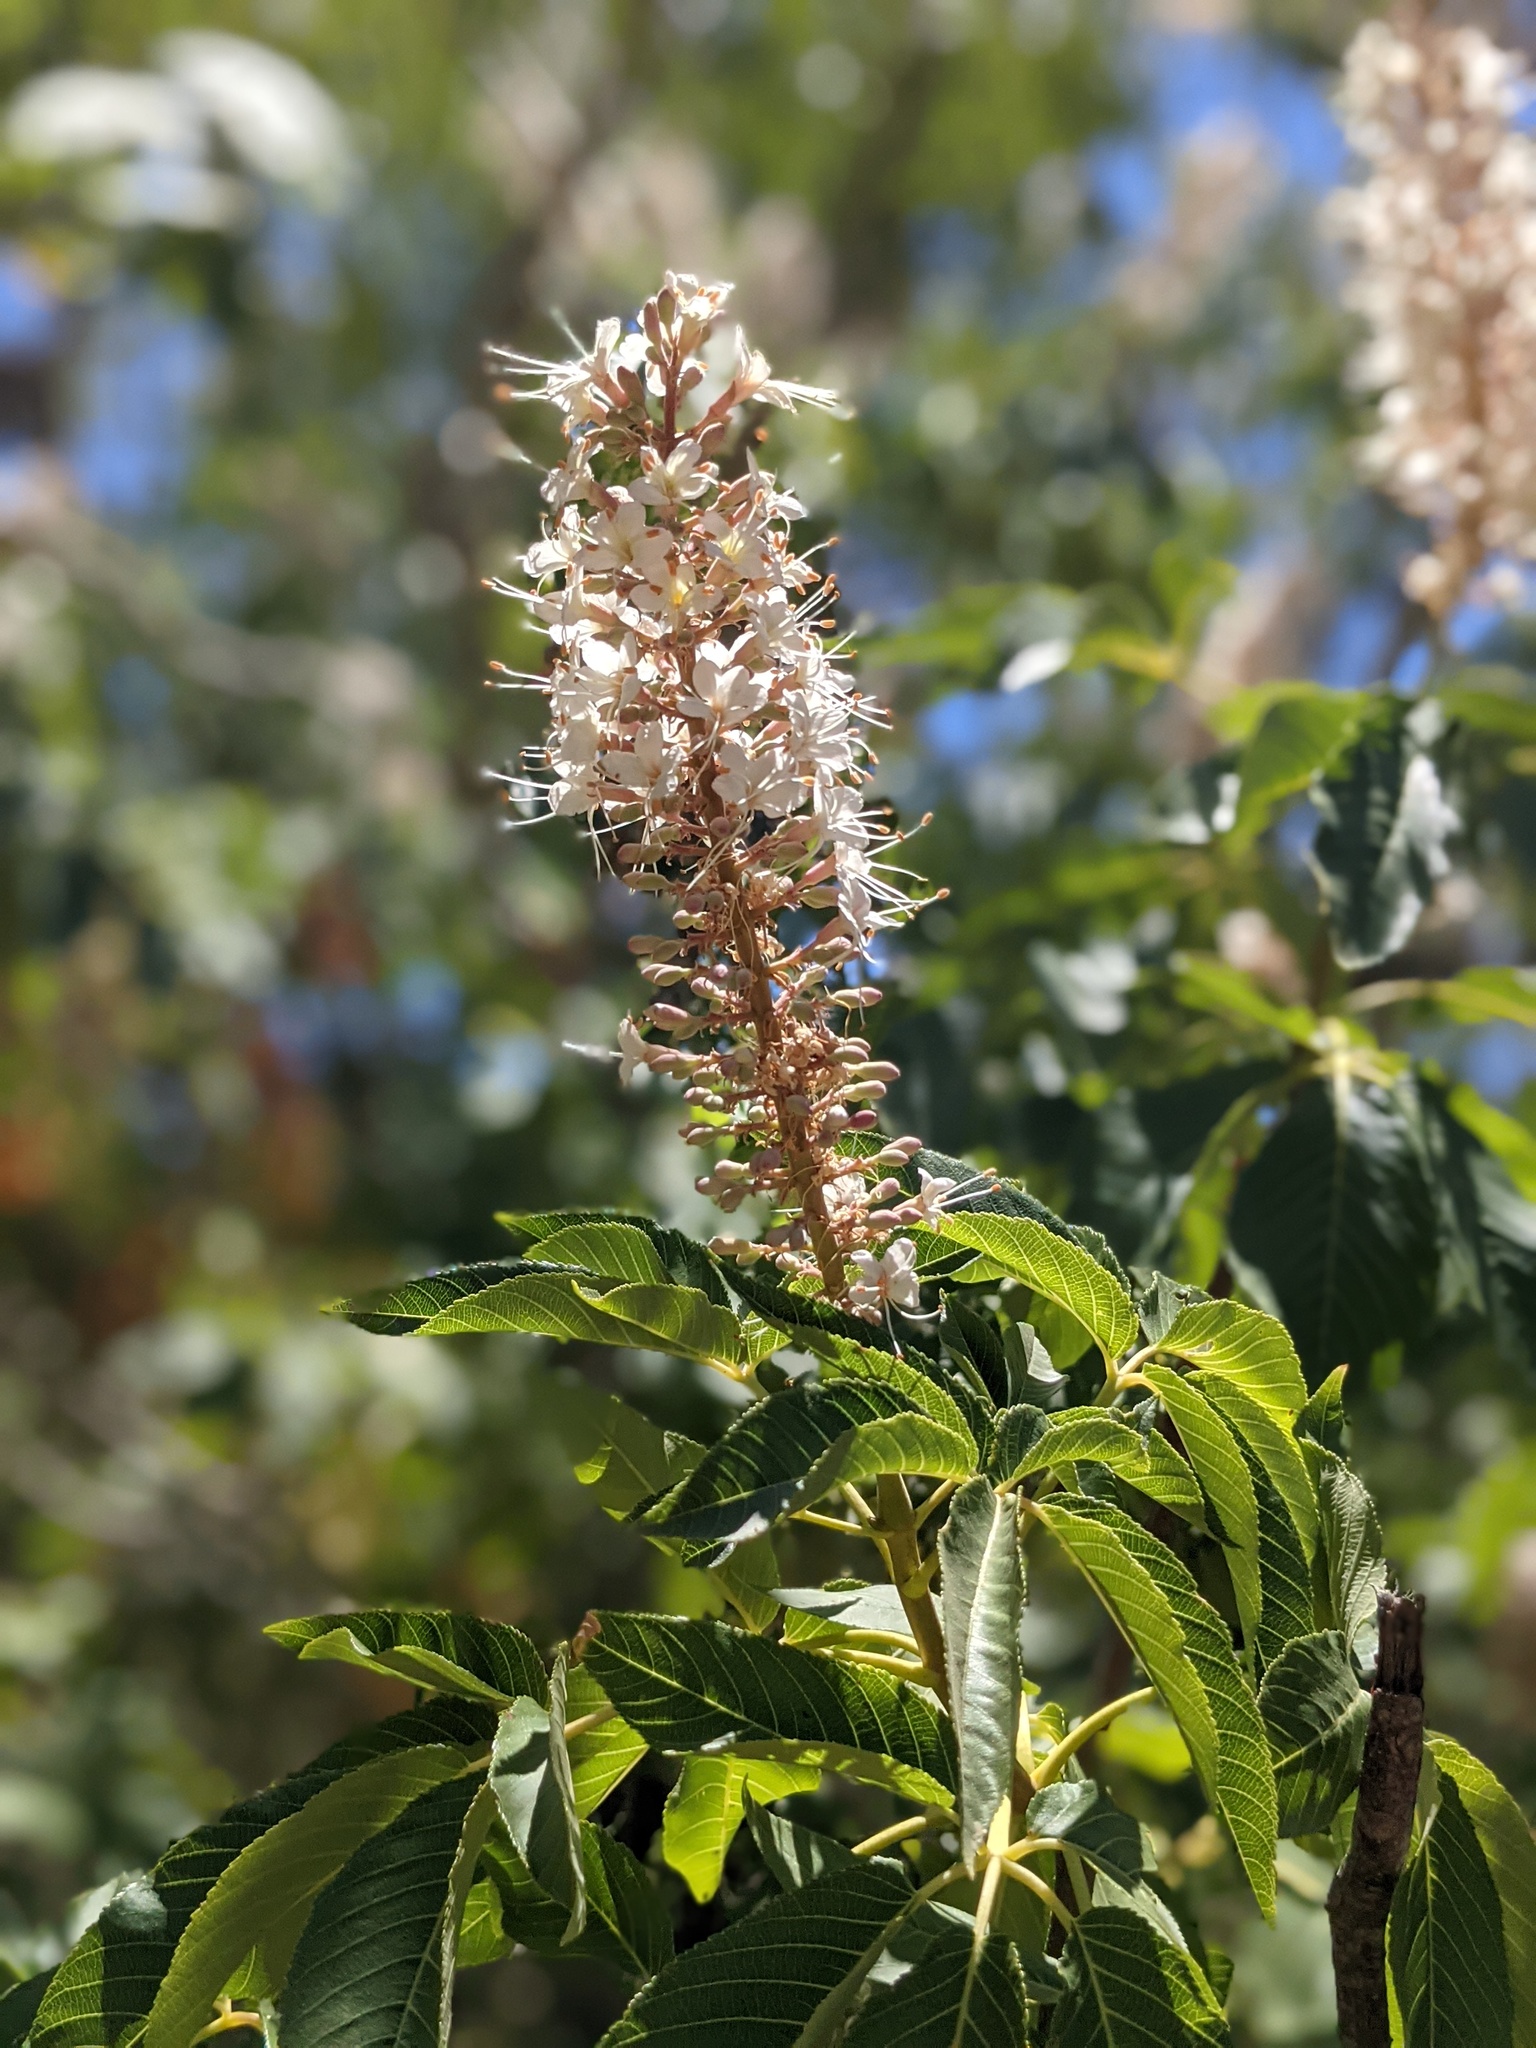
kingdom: Plantae
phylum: Tracheophyta
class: Magnoliopsida
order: Sapindales
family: Sapindaceae
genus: Aesculus
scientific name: Aesculus californica
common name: California buckeye
